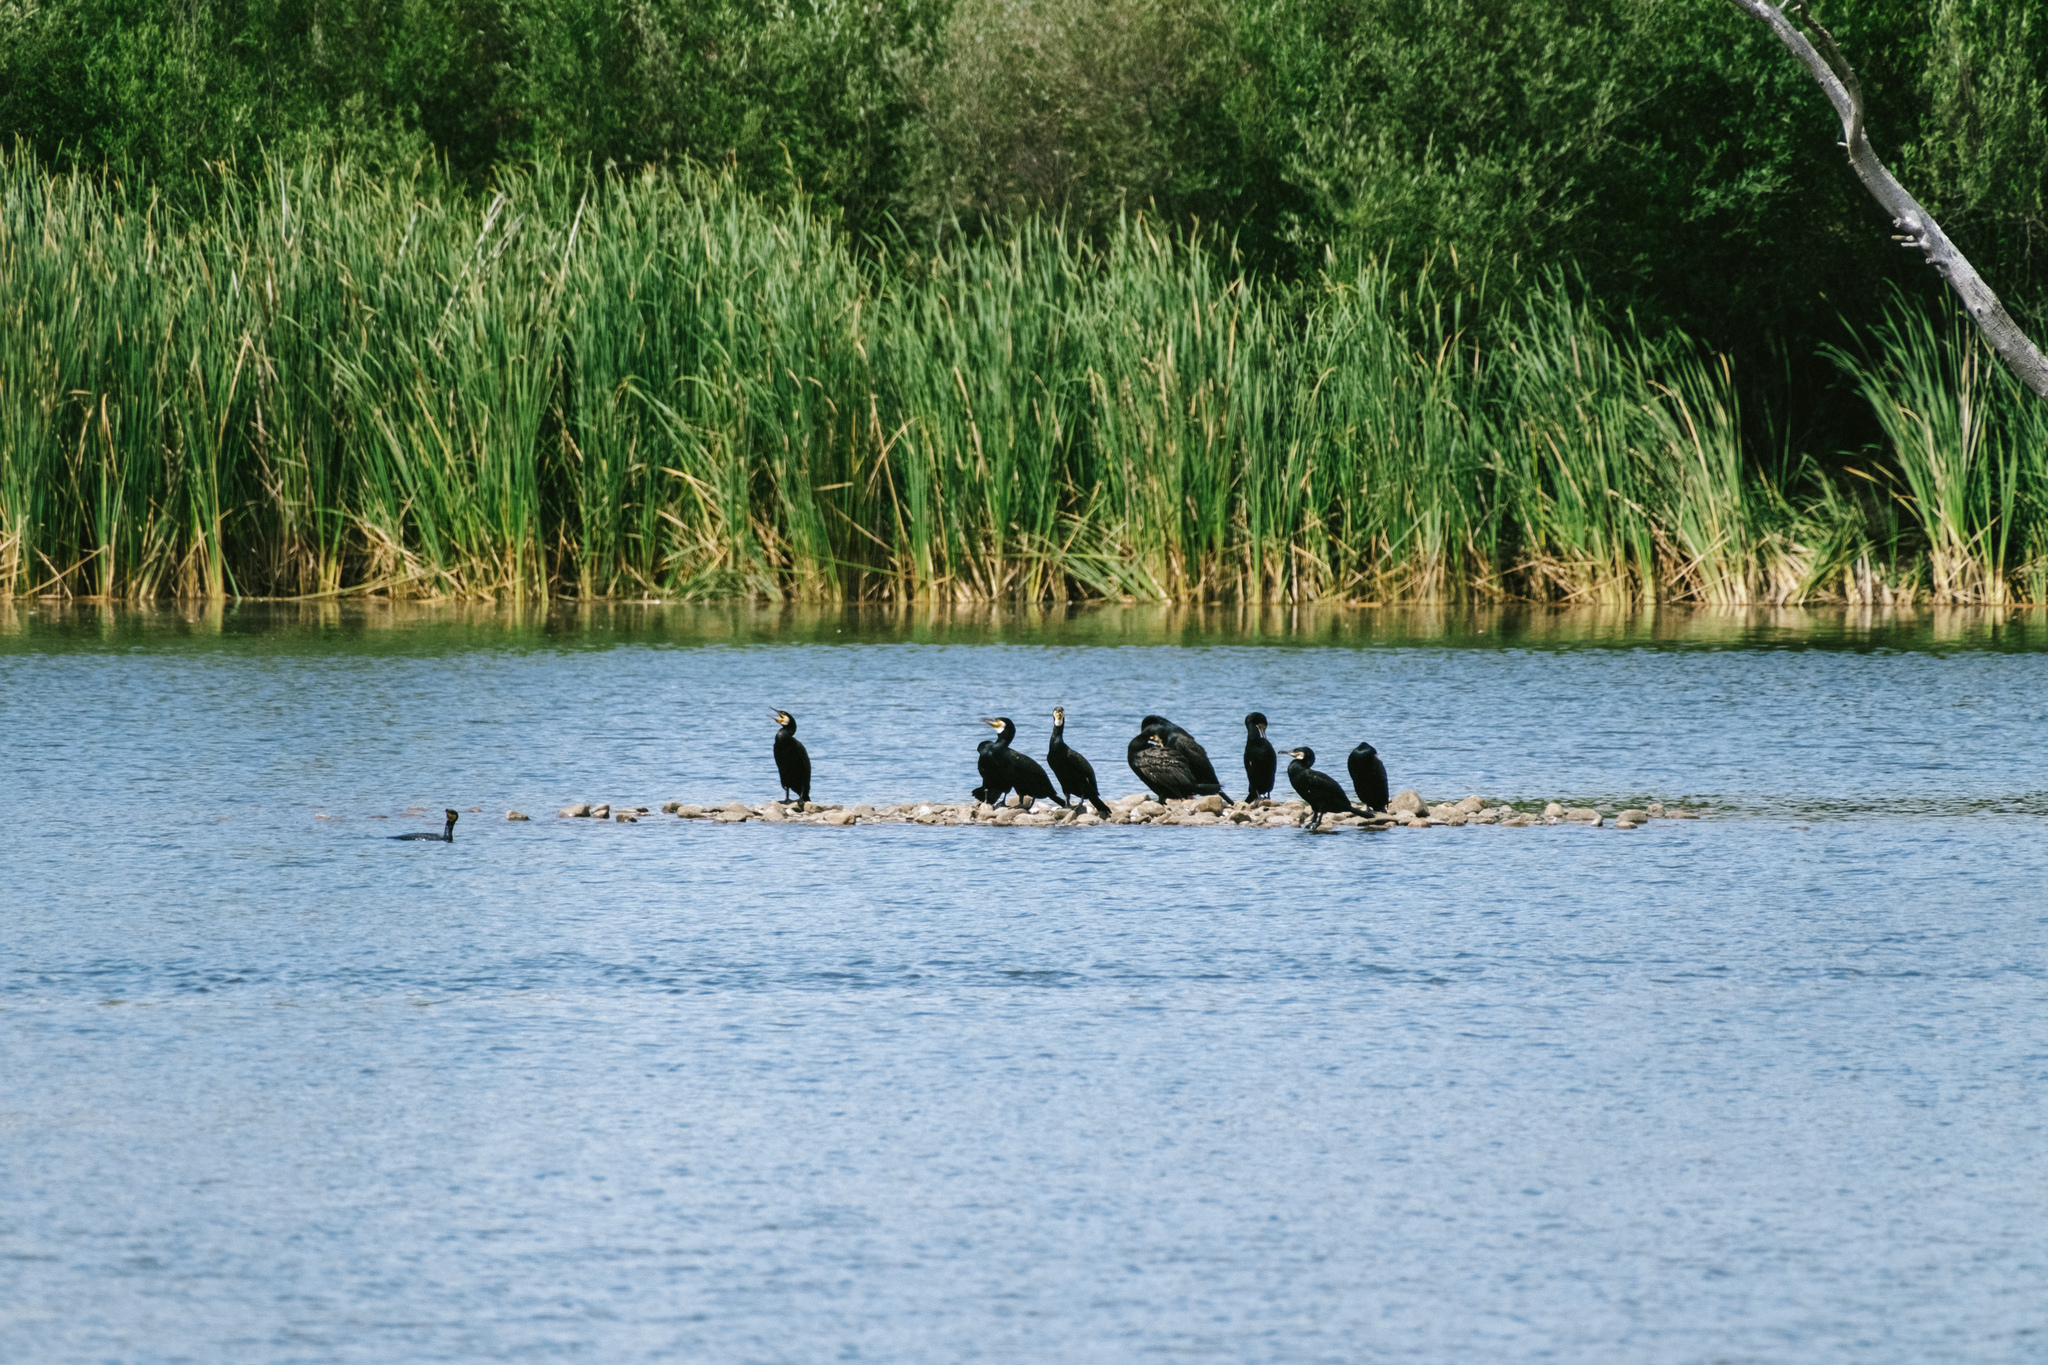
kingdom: Animalia
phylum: Chordata
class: Aves
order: Suliformes
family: Phalacrocoracidae
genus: Phalacrocorax
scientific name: Phalacrocorax carbo
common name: Great cormorant
